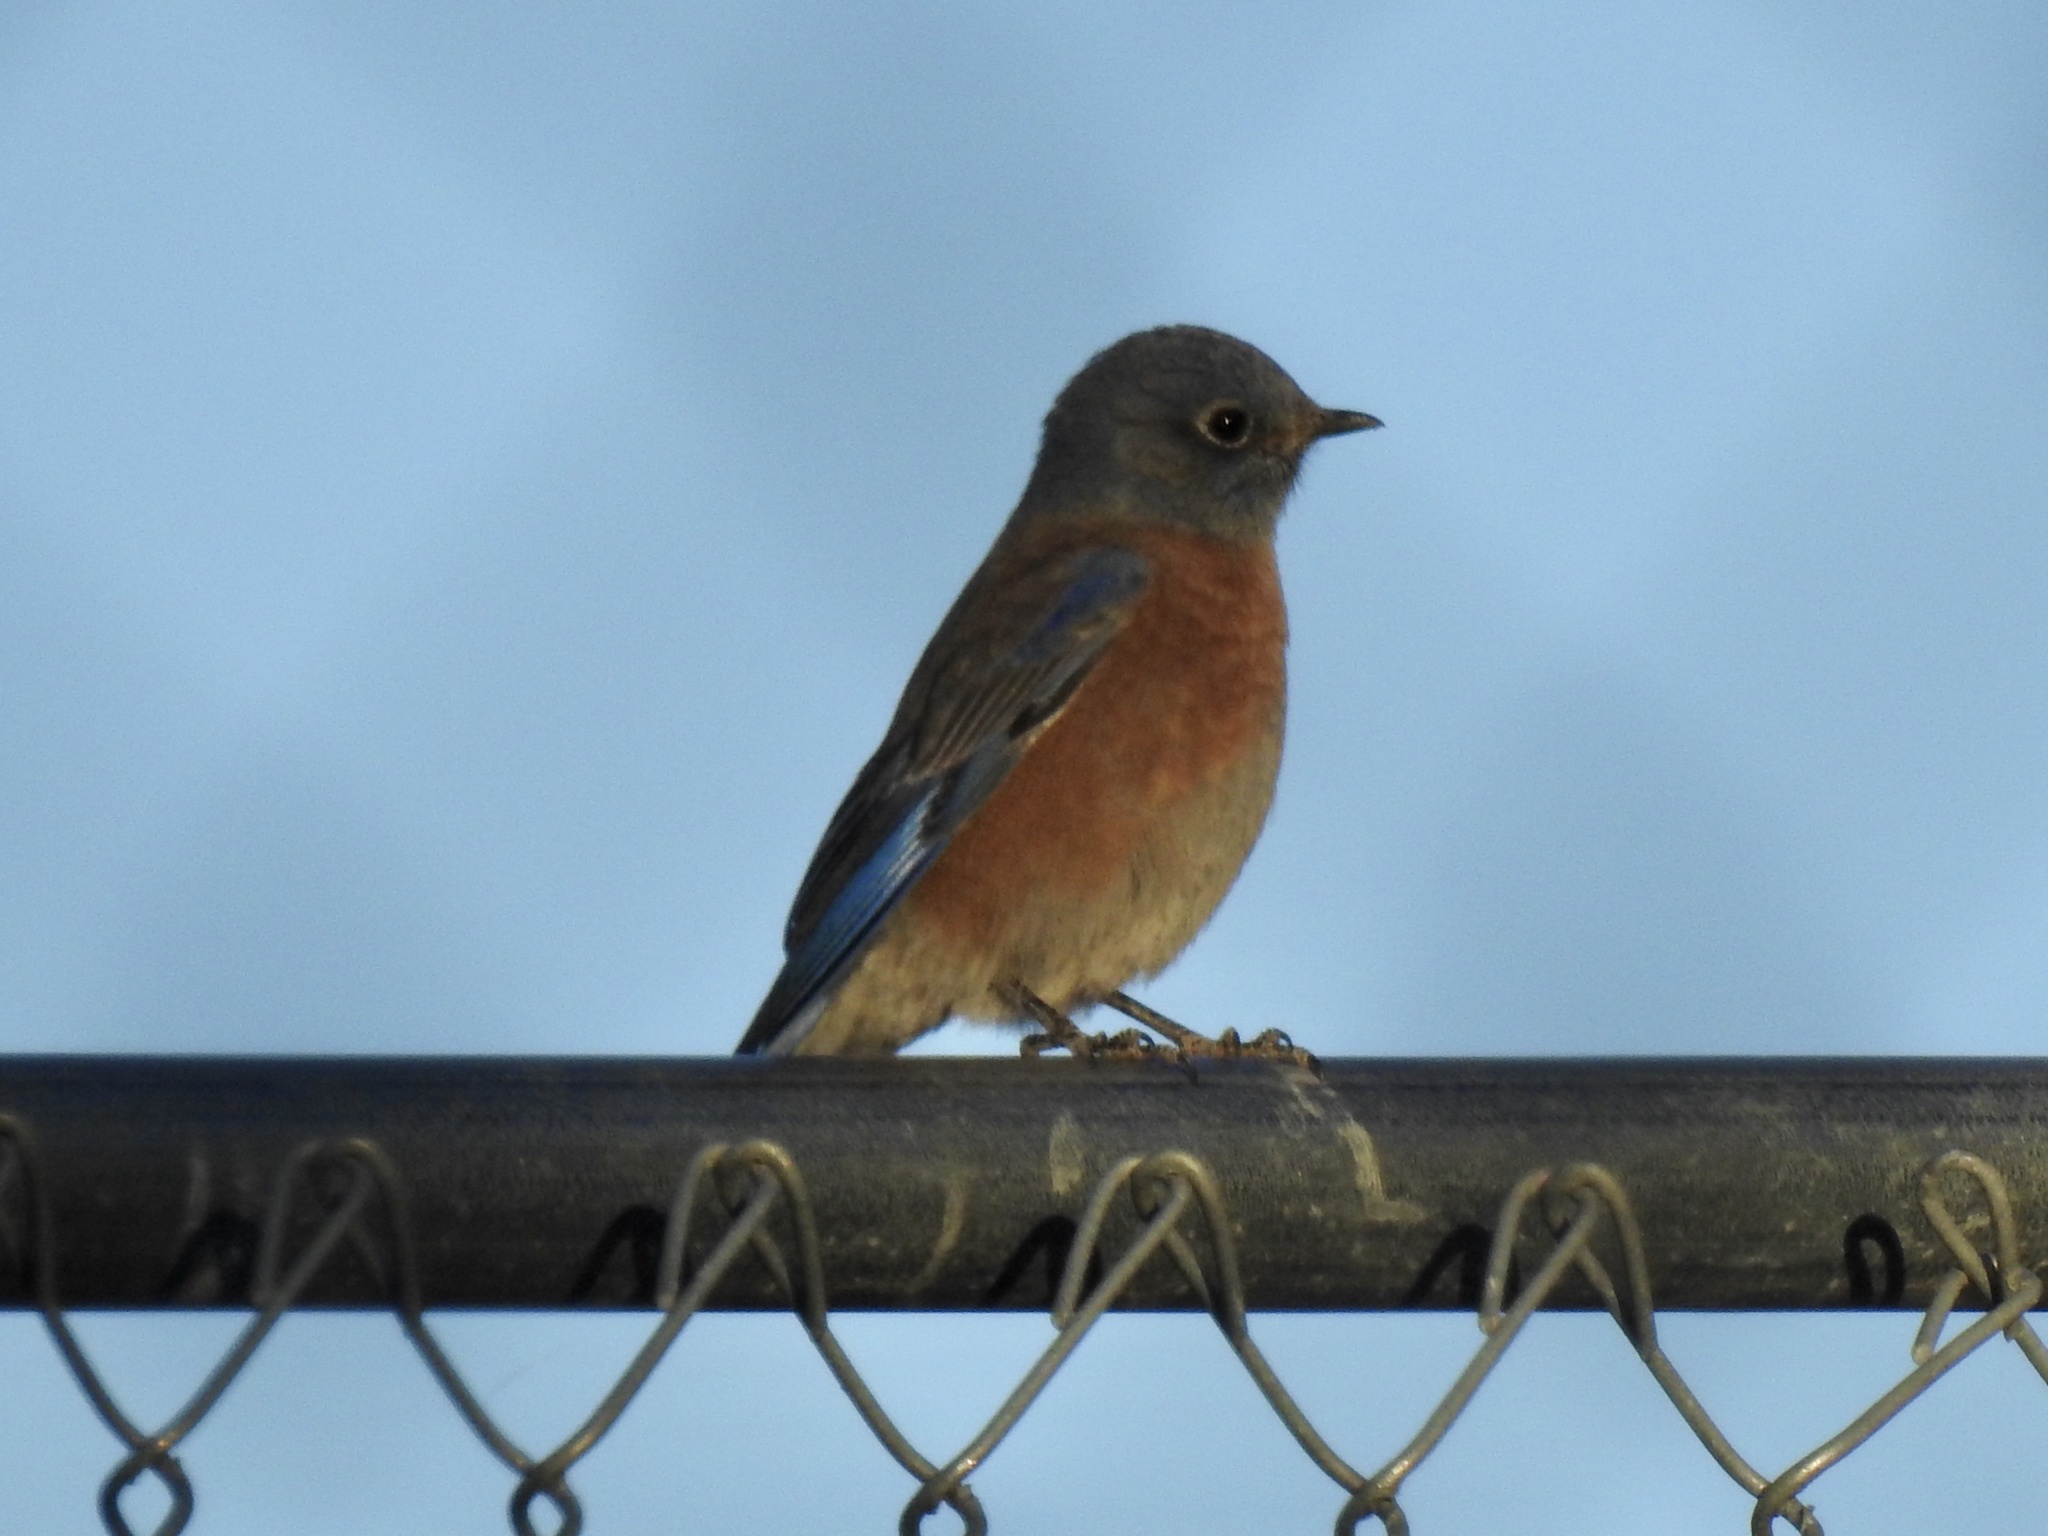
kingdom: Animalia
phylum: Chordata
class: Aves
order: Passeriformes
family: Turdidae
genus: Sialia
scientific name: Sialia mexicana
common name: Western bluebird
